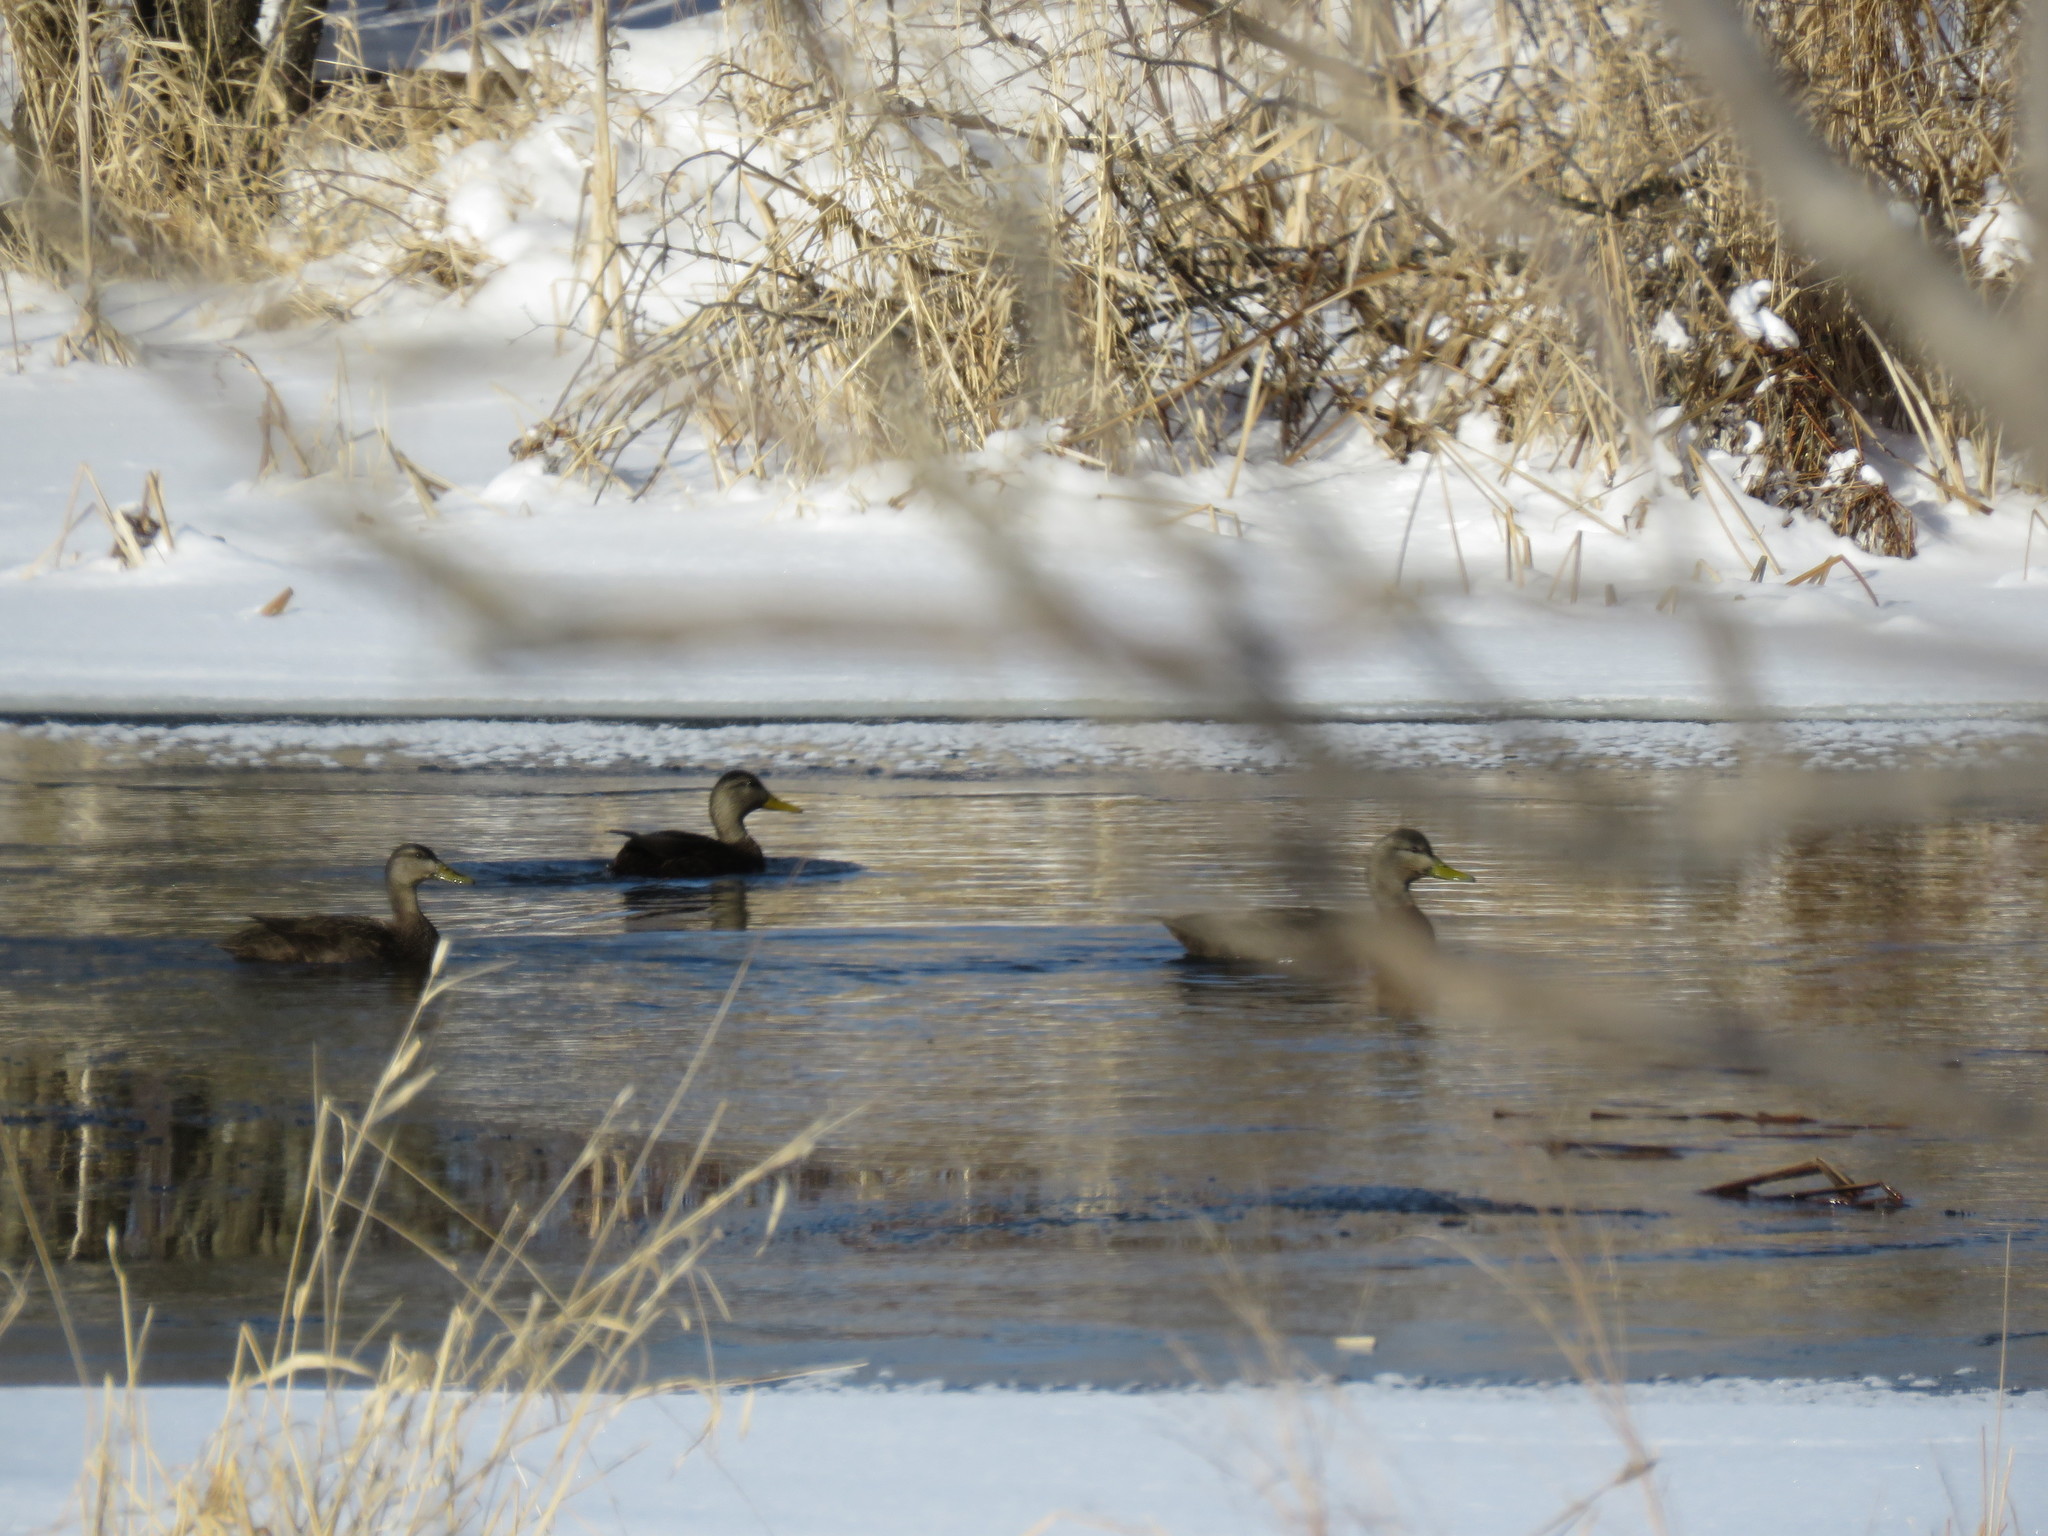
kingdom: Animalia
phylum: Chordata
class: Aves
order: Anseriformes
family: Anatidae
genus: Anas
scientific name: Anas rubripes
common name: American black duck
